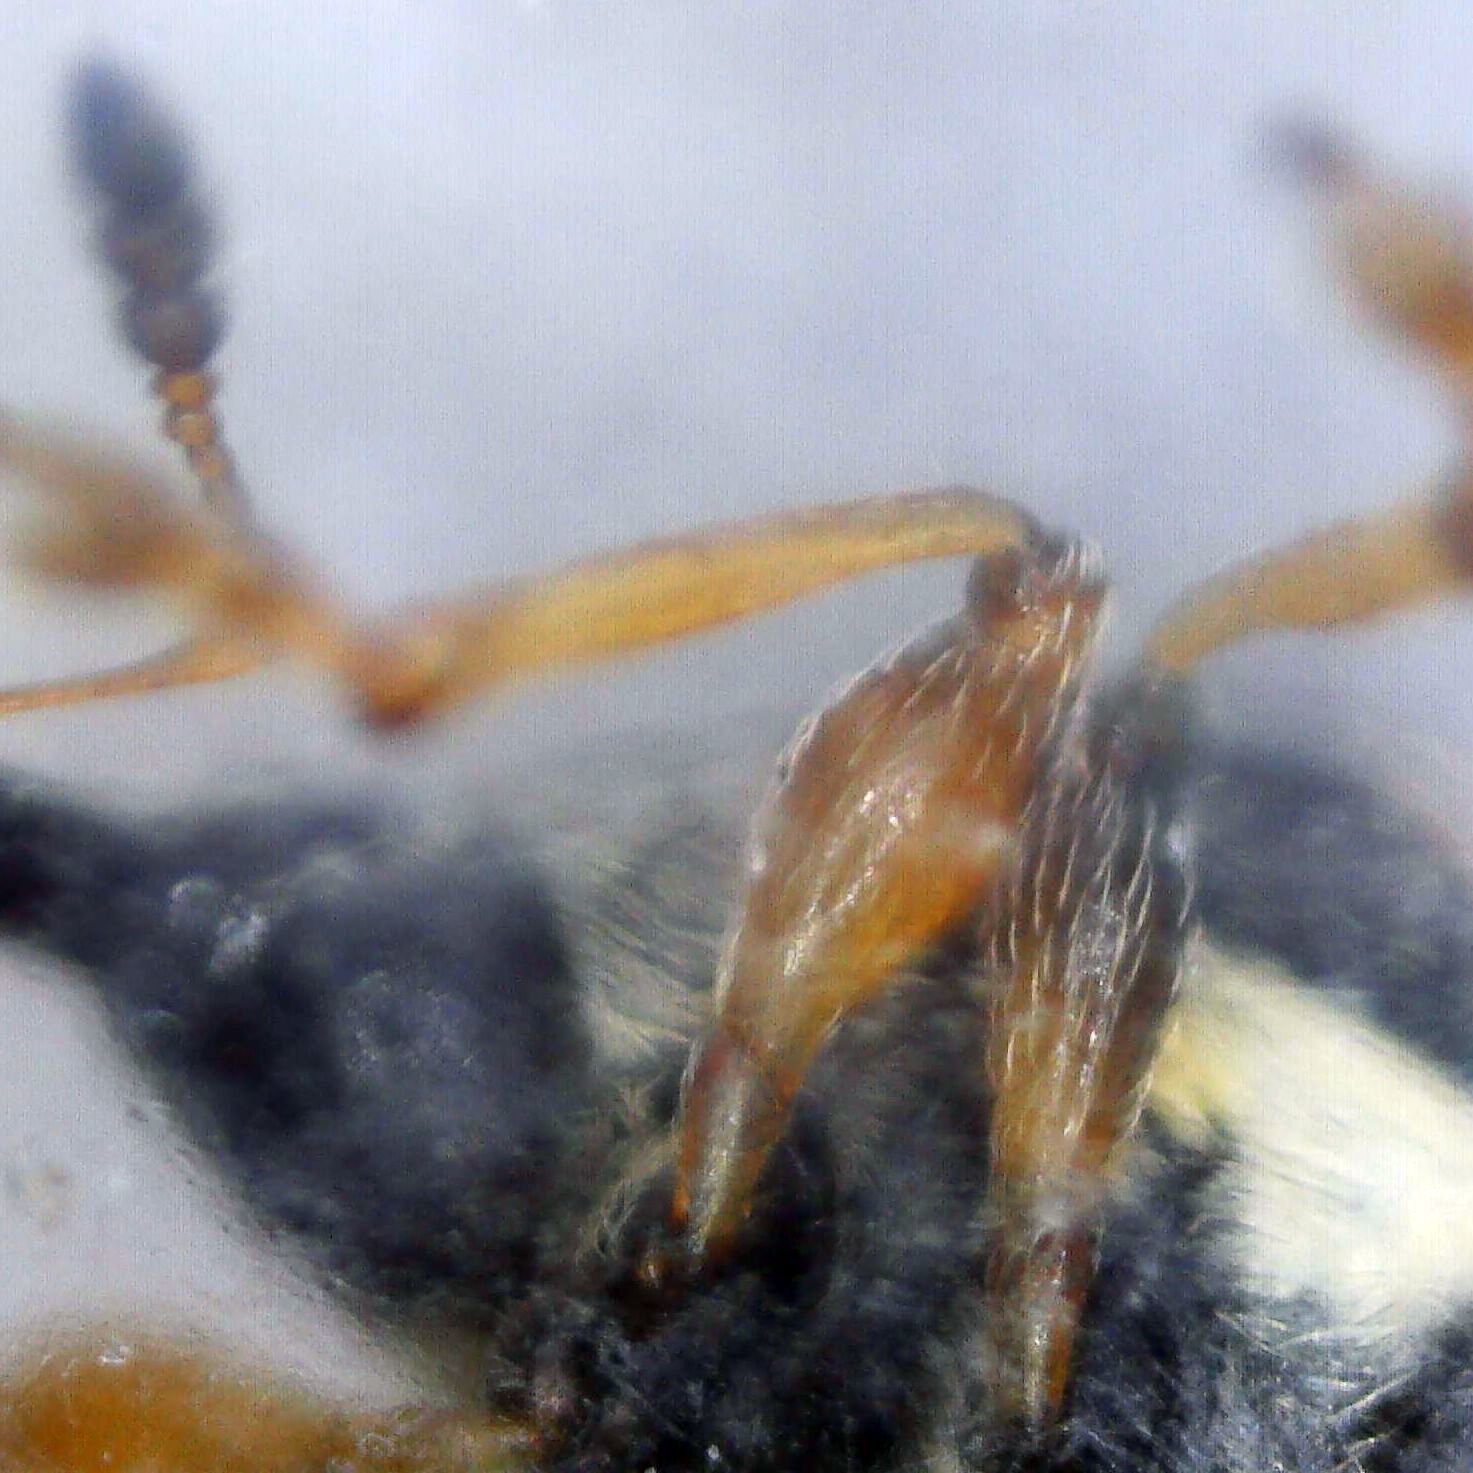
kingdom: Animalia
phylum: Arthropoda
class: Insecta
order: Coleoptera
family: Brentidae
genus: Nanophyes
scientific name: Nanophyes marmoratus
